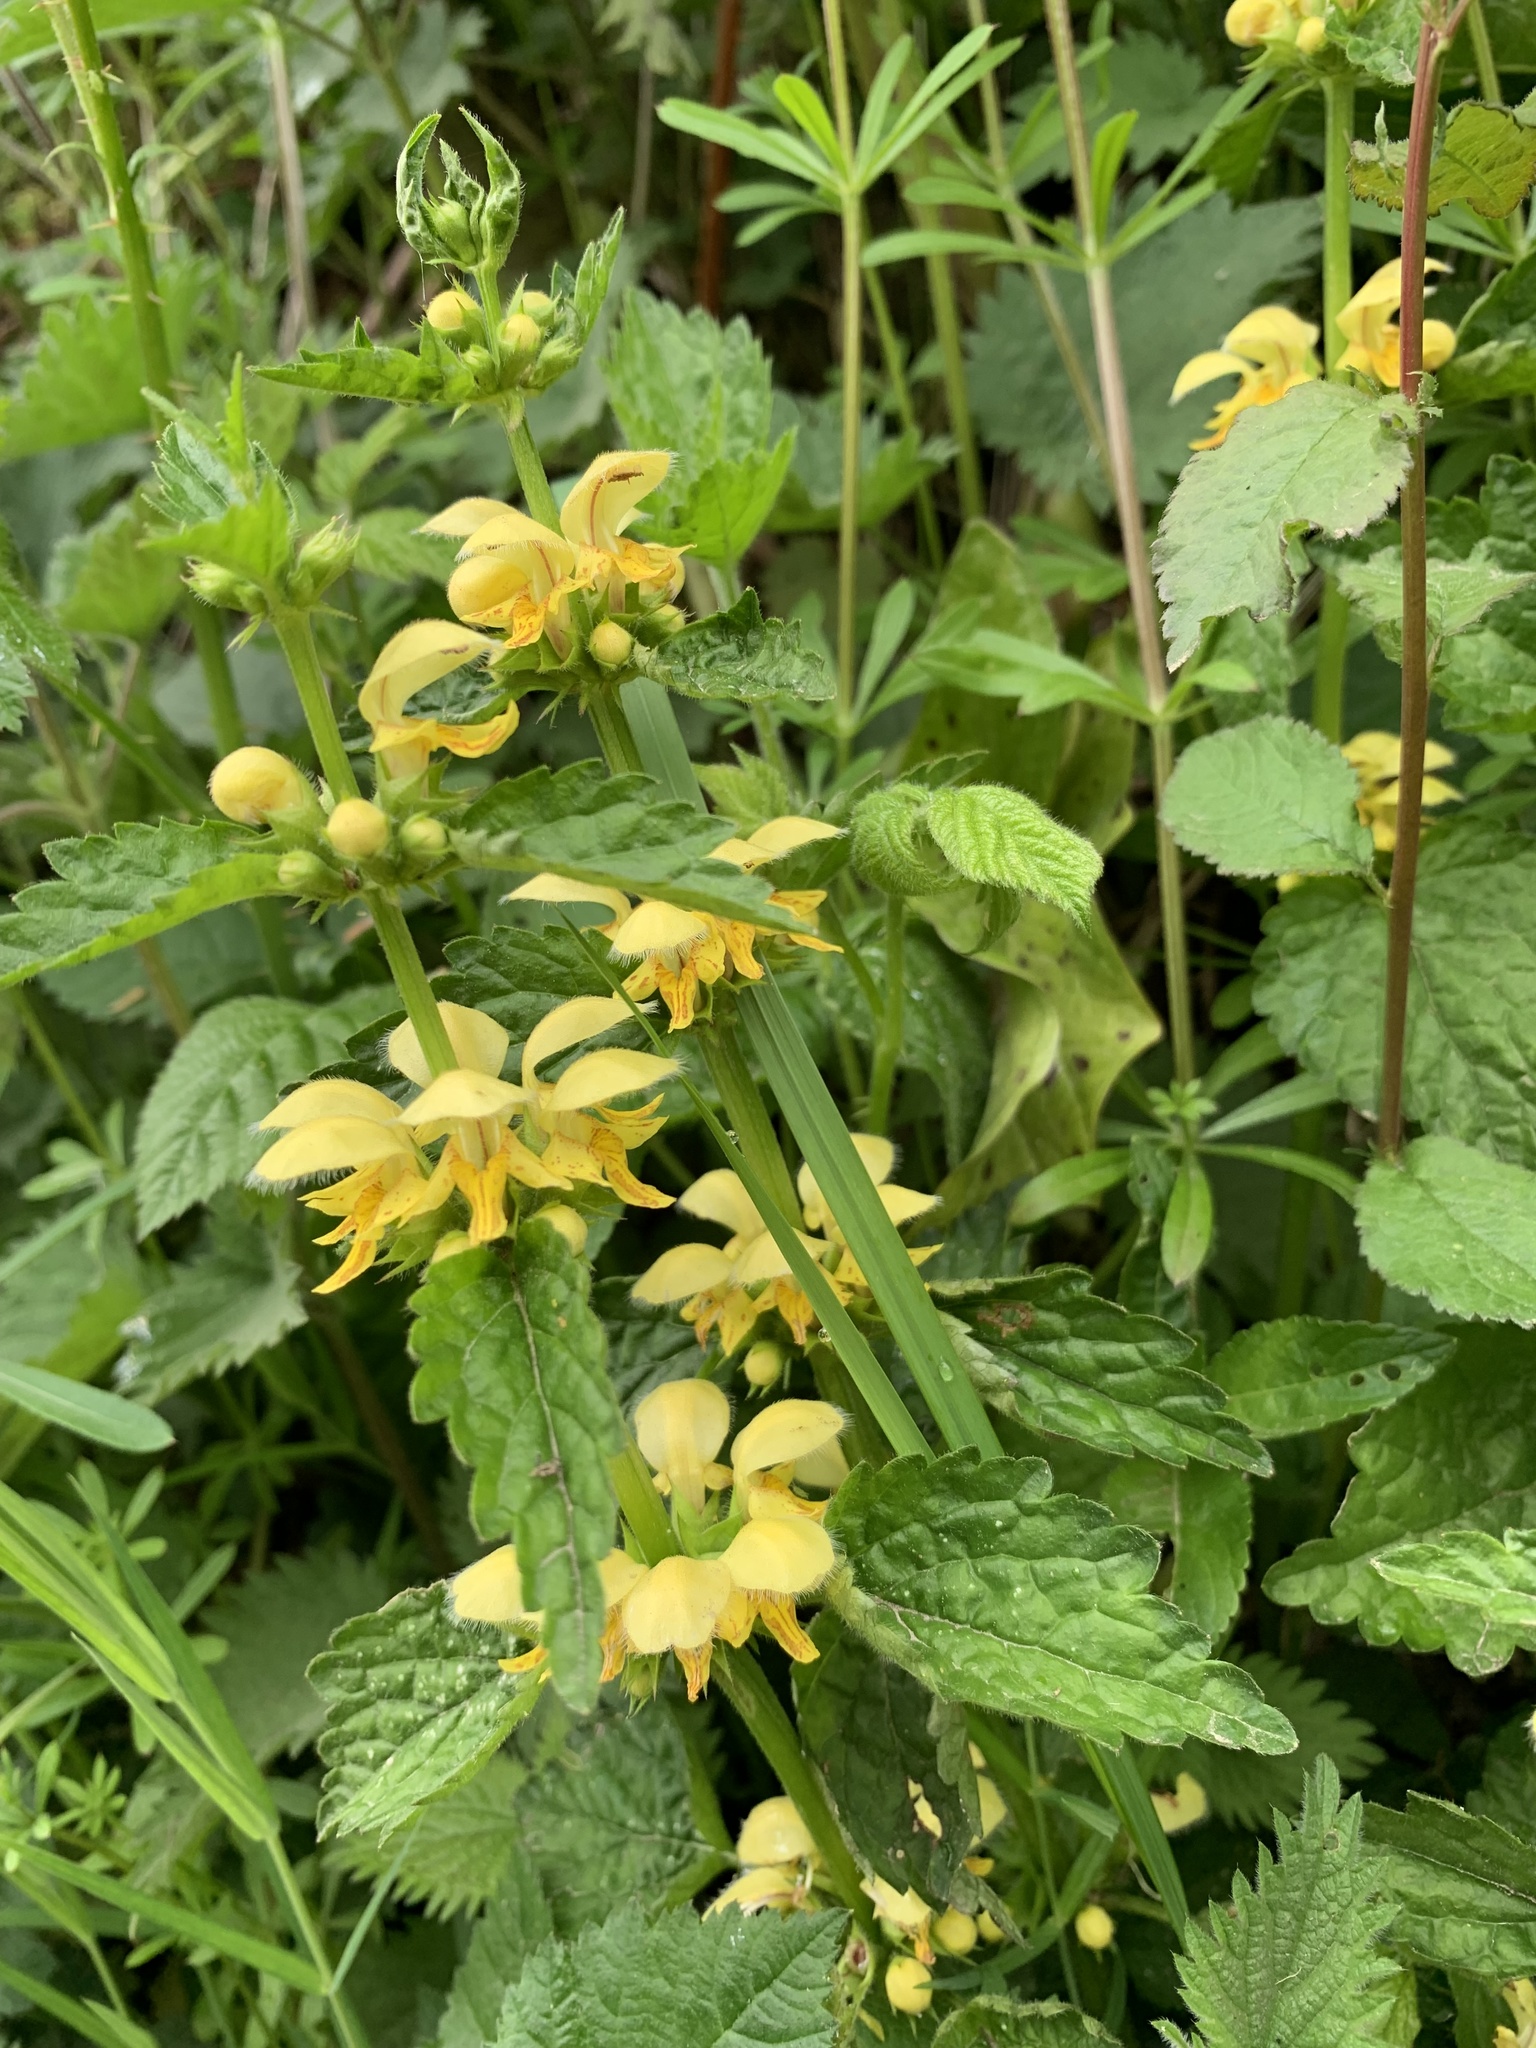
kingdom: Plantae
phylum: Tracheophyta
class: Magnoliopsida
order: Lamiales
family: Lamiaceae
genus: Lamium
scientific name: Lamium galeobdolon
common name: Yellow archangel
